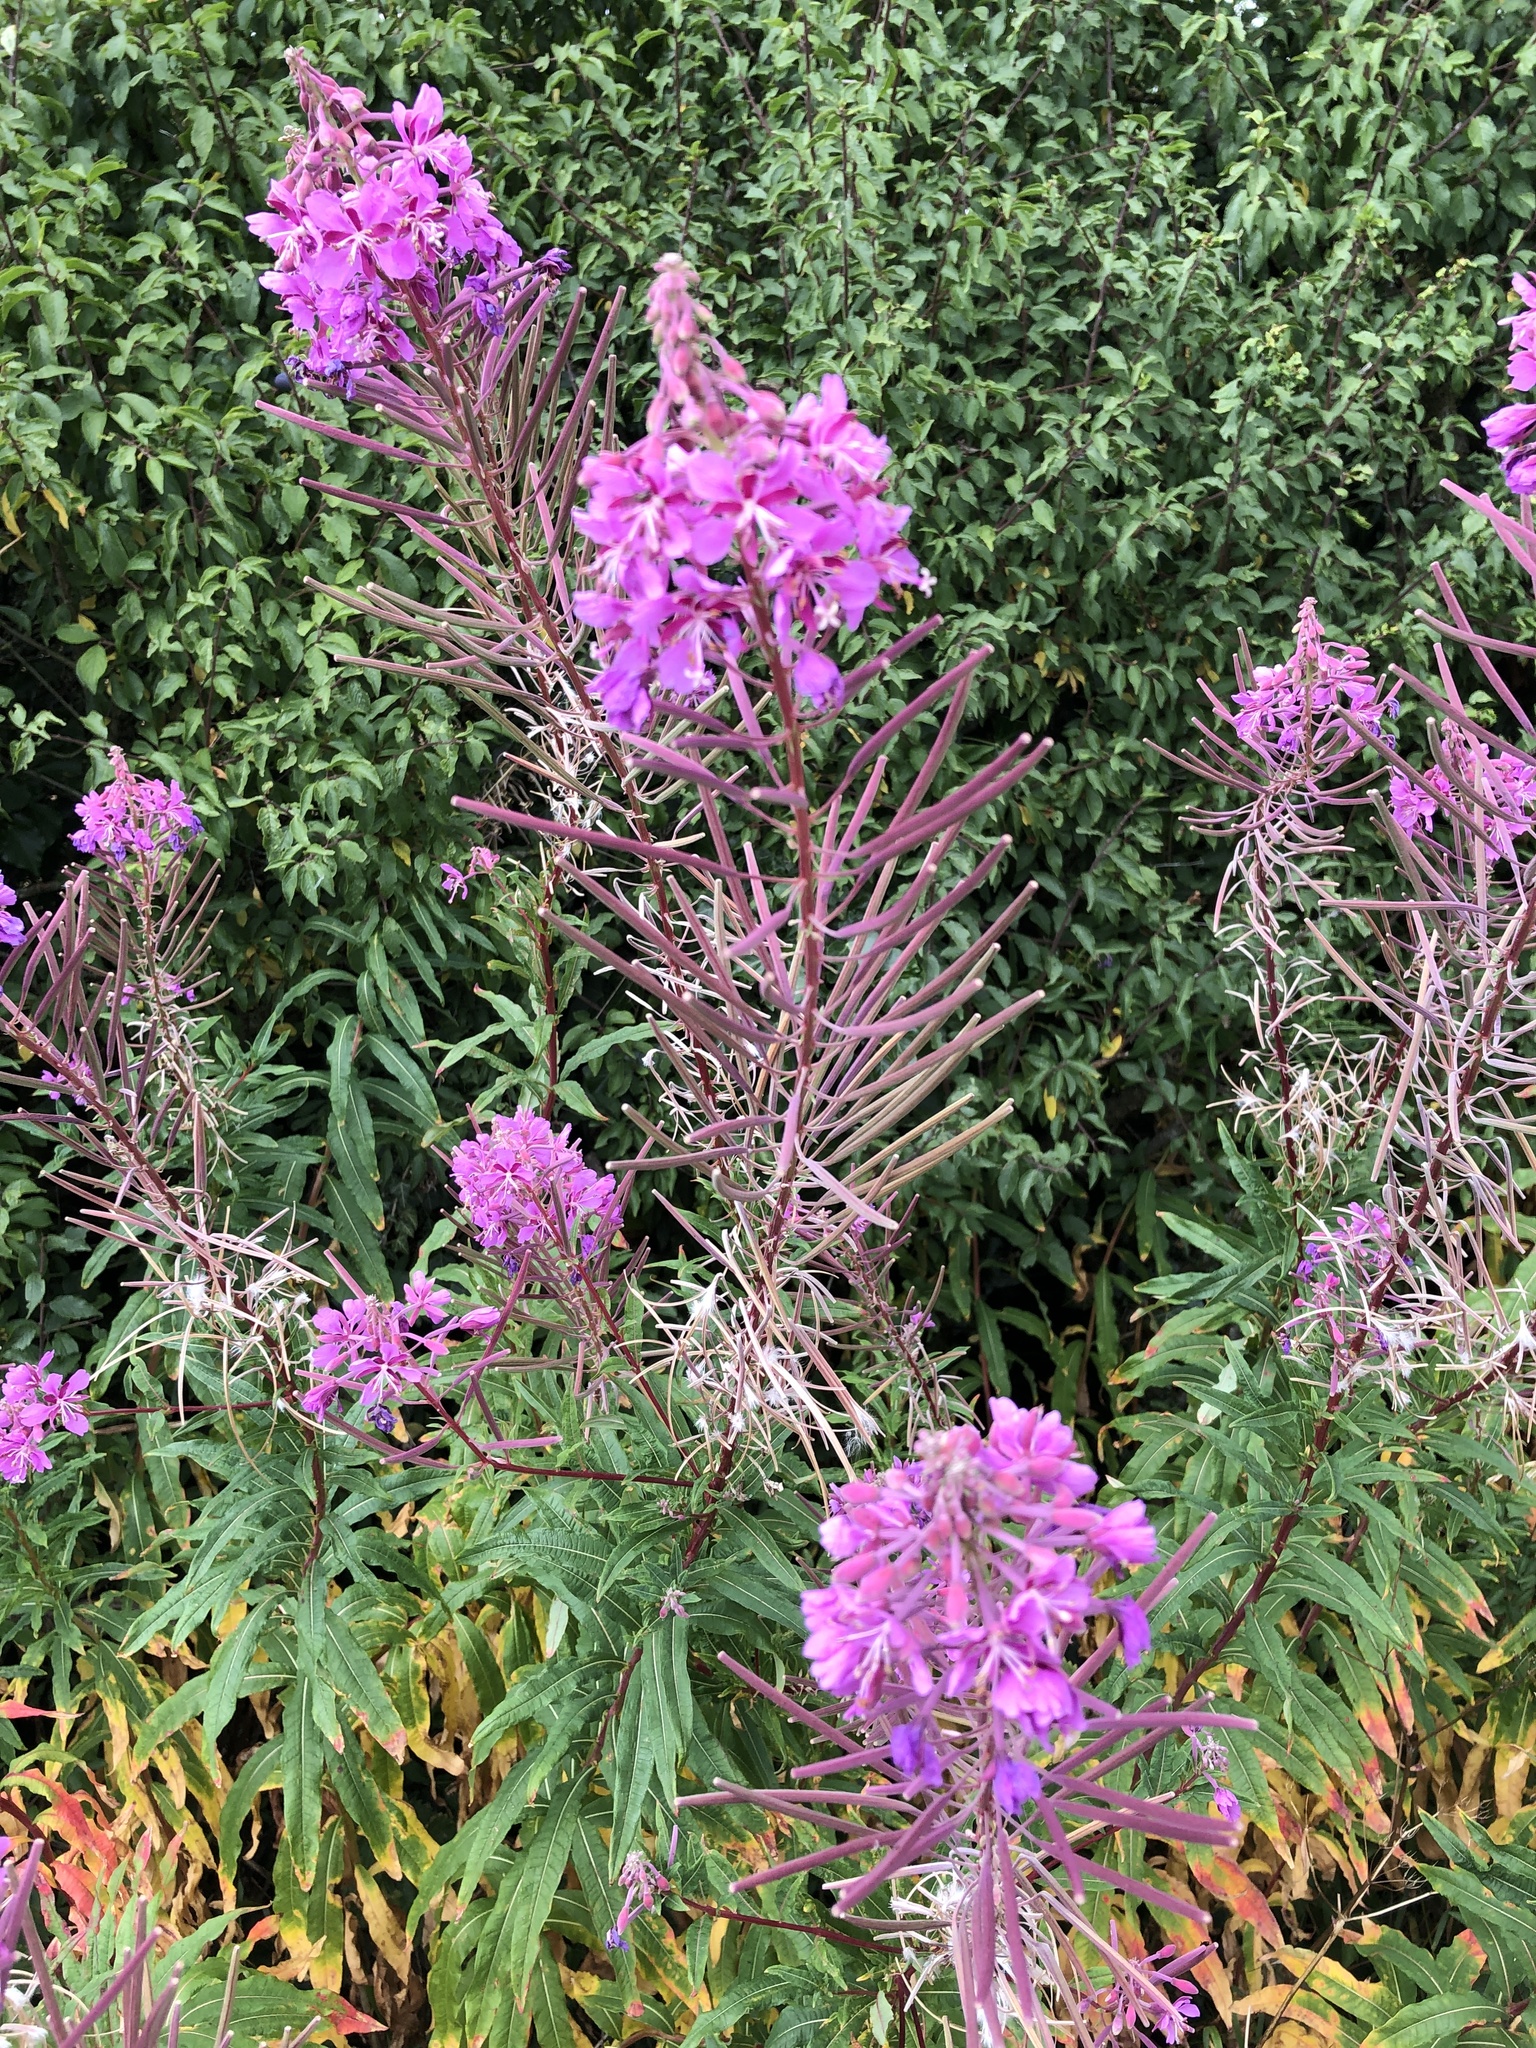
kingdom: Plantae
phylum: Tracheophyta
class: Magnoliopsida
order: Myrtales
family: Onagraceae
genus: Chamaenerion
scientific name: Chamaenerion angustifolium
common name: Fireweed
